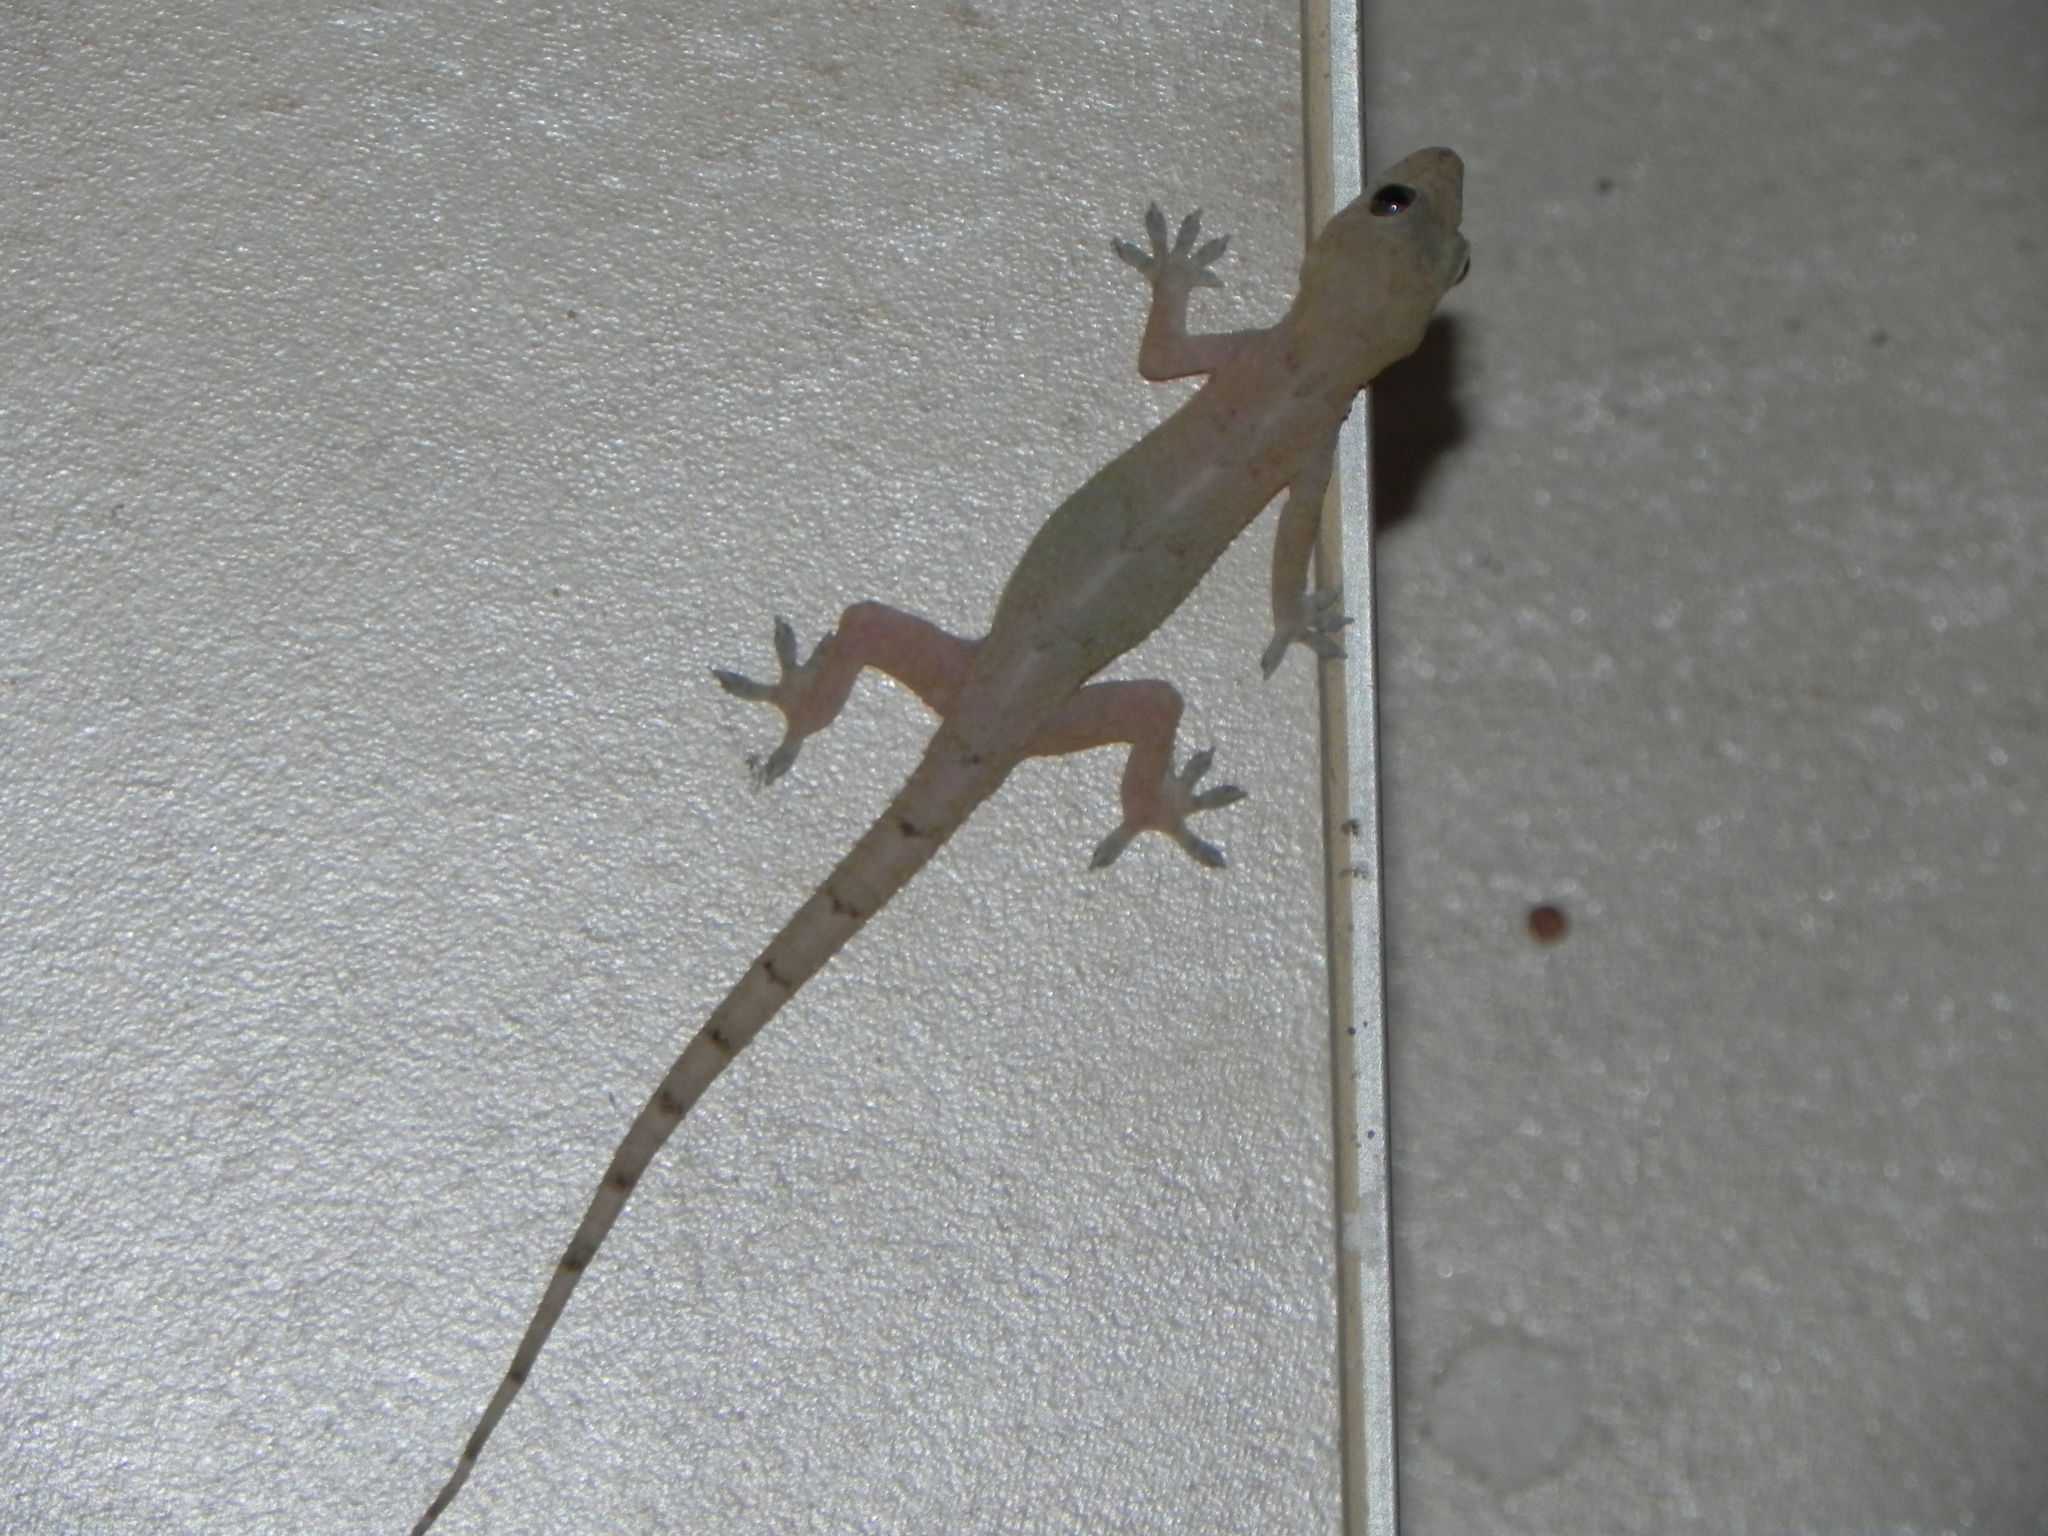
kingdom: Animalia
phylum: Chordata
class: Squamata
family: Gekkonidae
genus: Hemidactylus
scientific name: Hemidactylus mabouia
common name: House gecko
